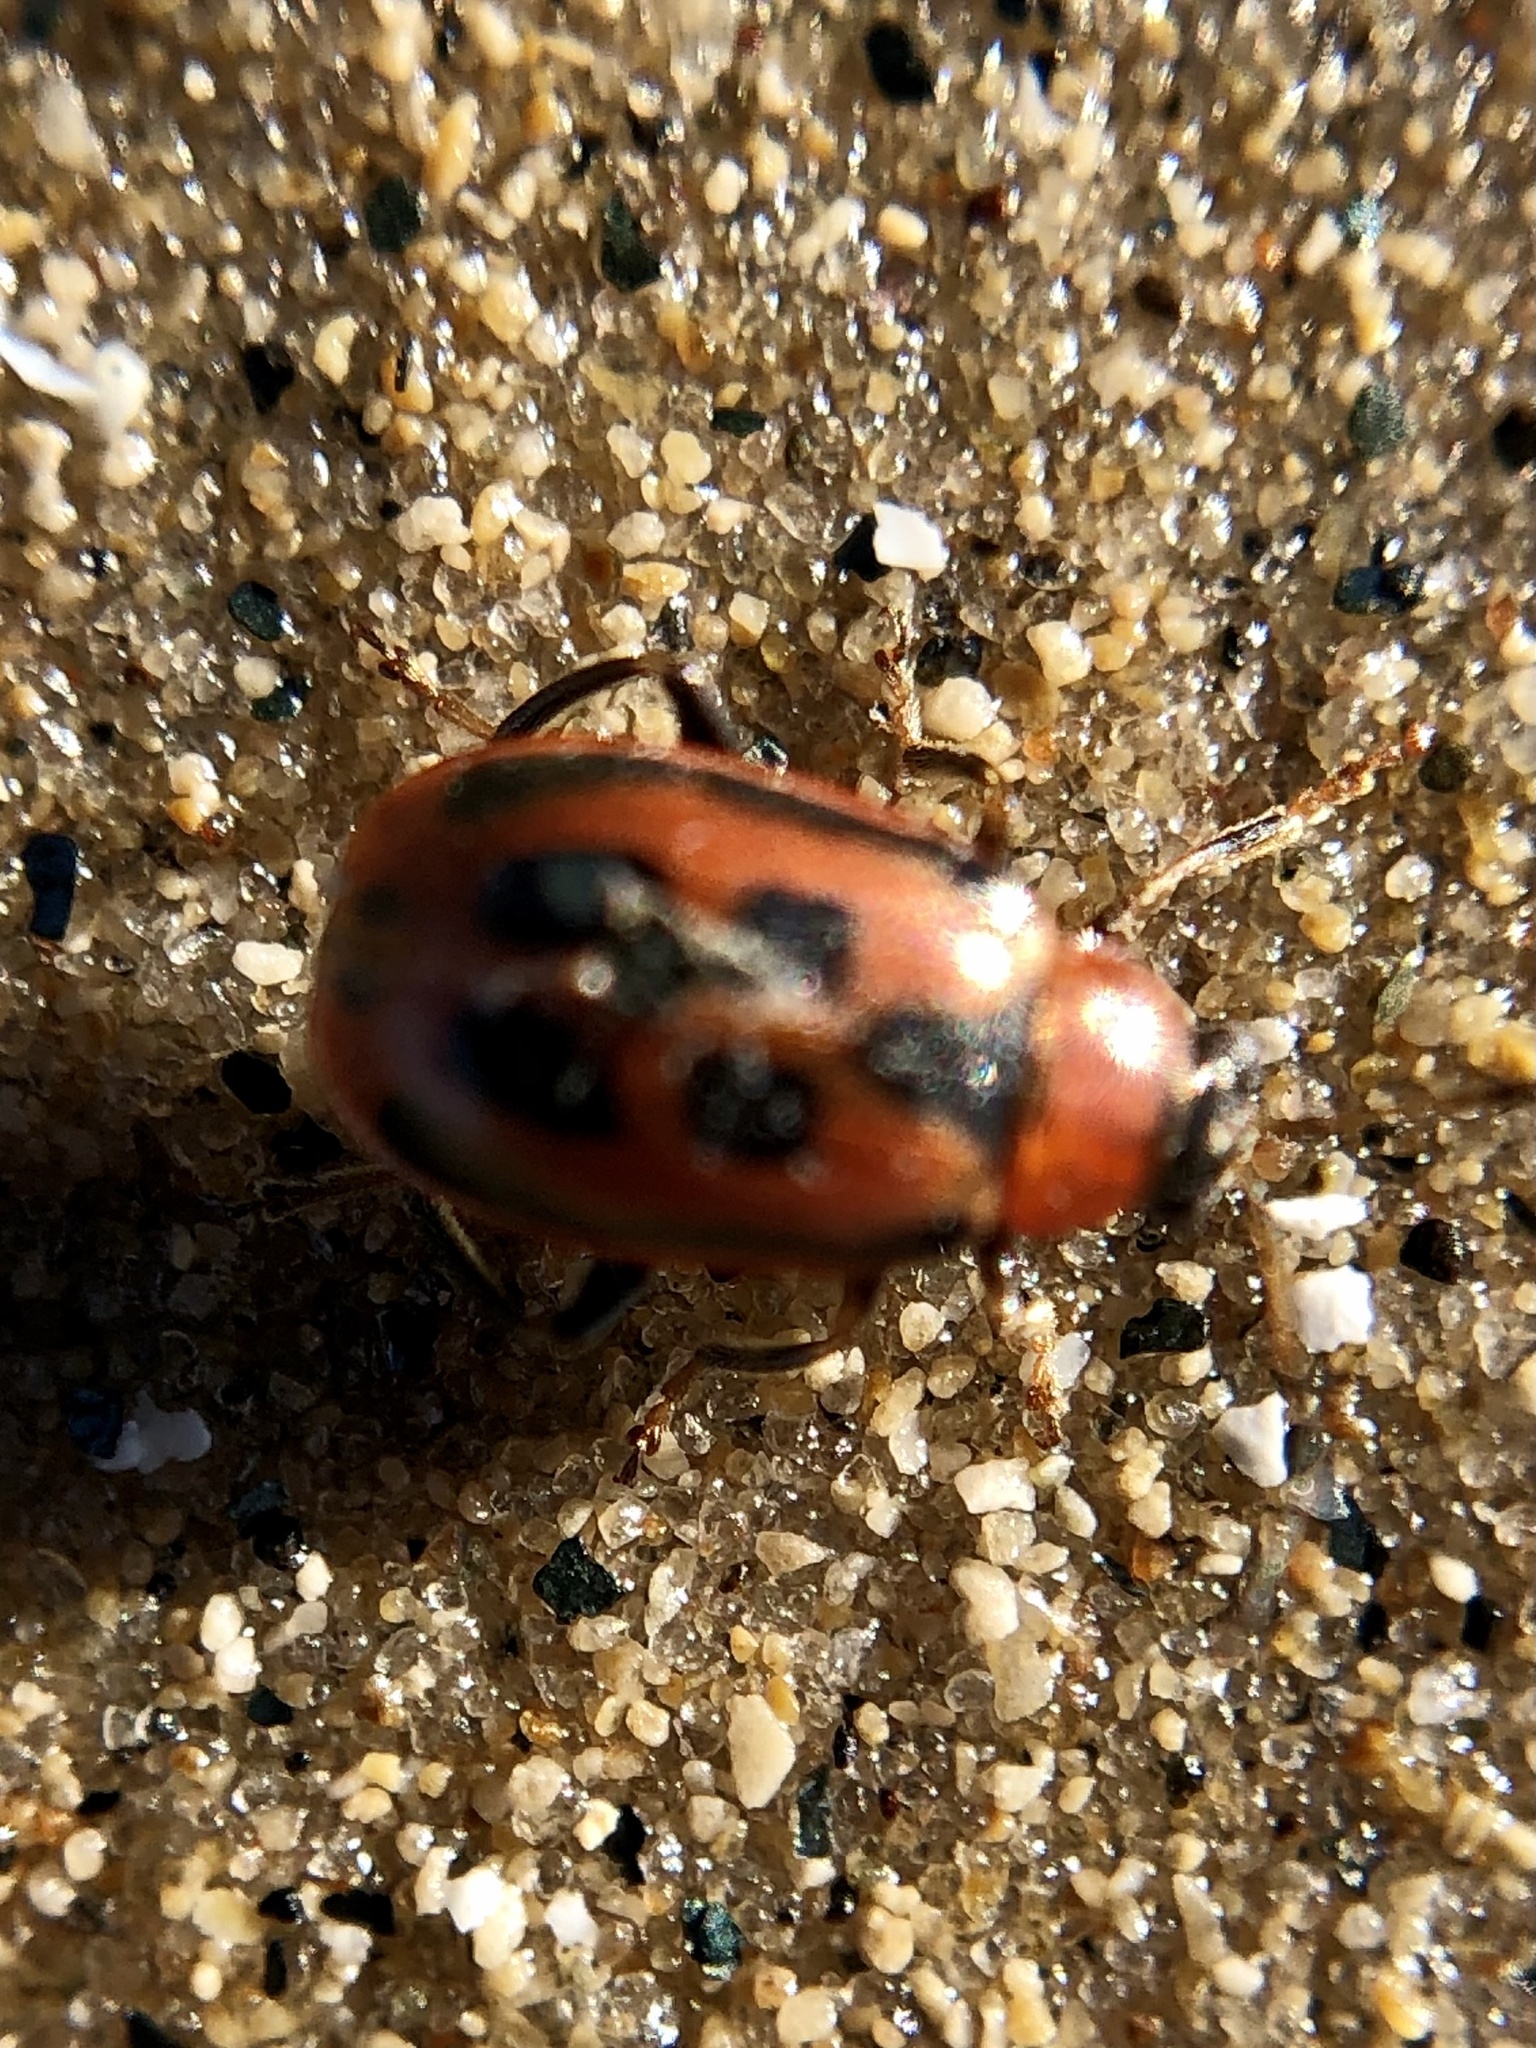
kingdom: Animalia
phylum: Arthropoda
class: Insecta
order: Coleoptera
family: Chrysomelidae
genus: Cerotoma
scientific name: Cerotoma trifurcata
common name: Bean leaf beetle
